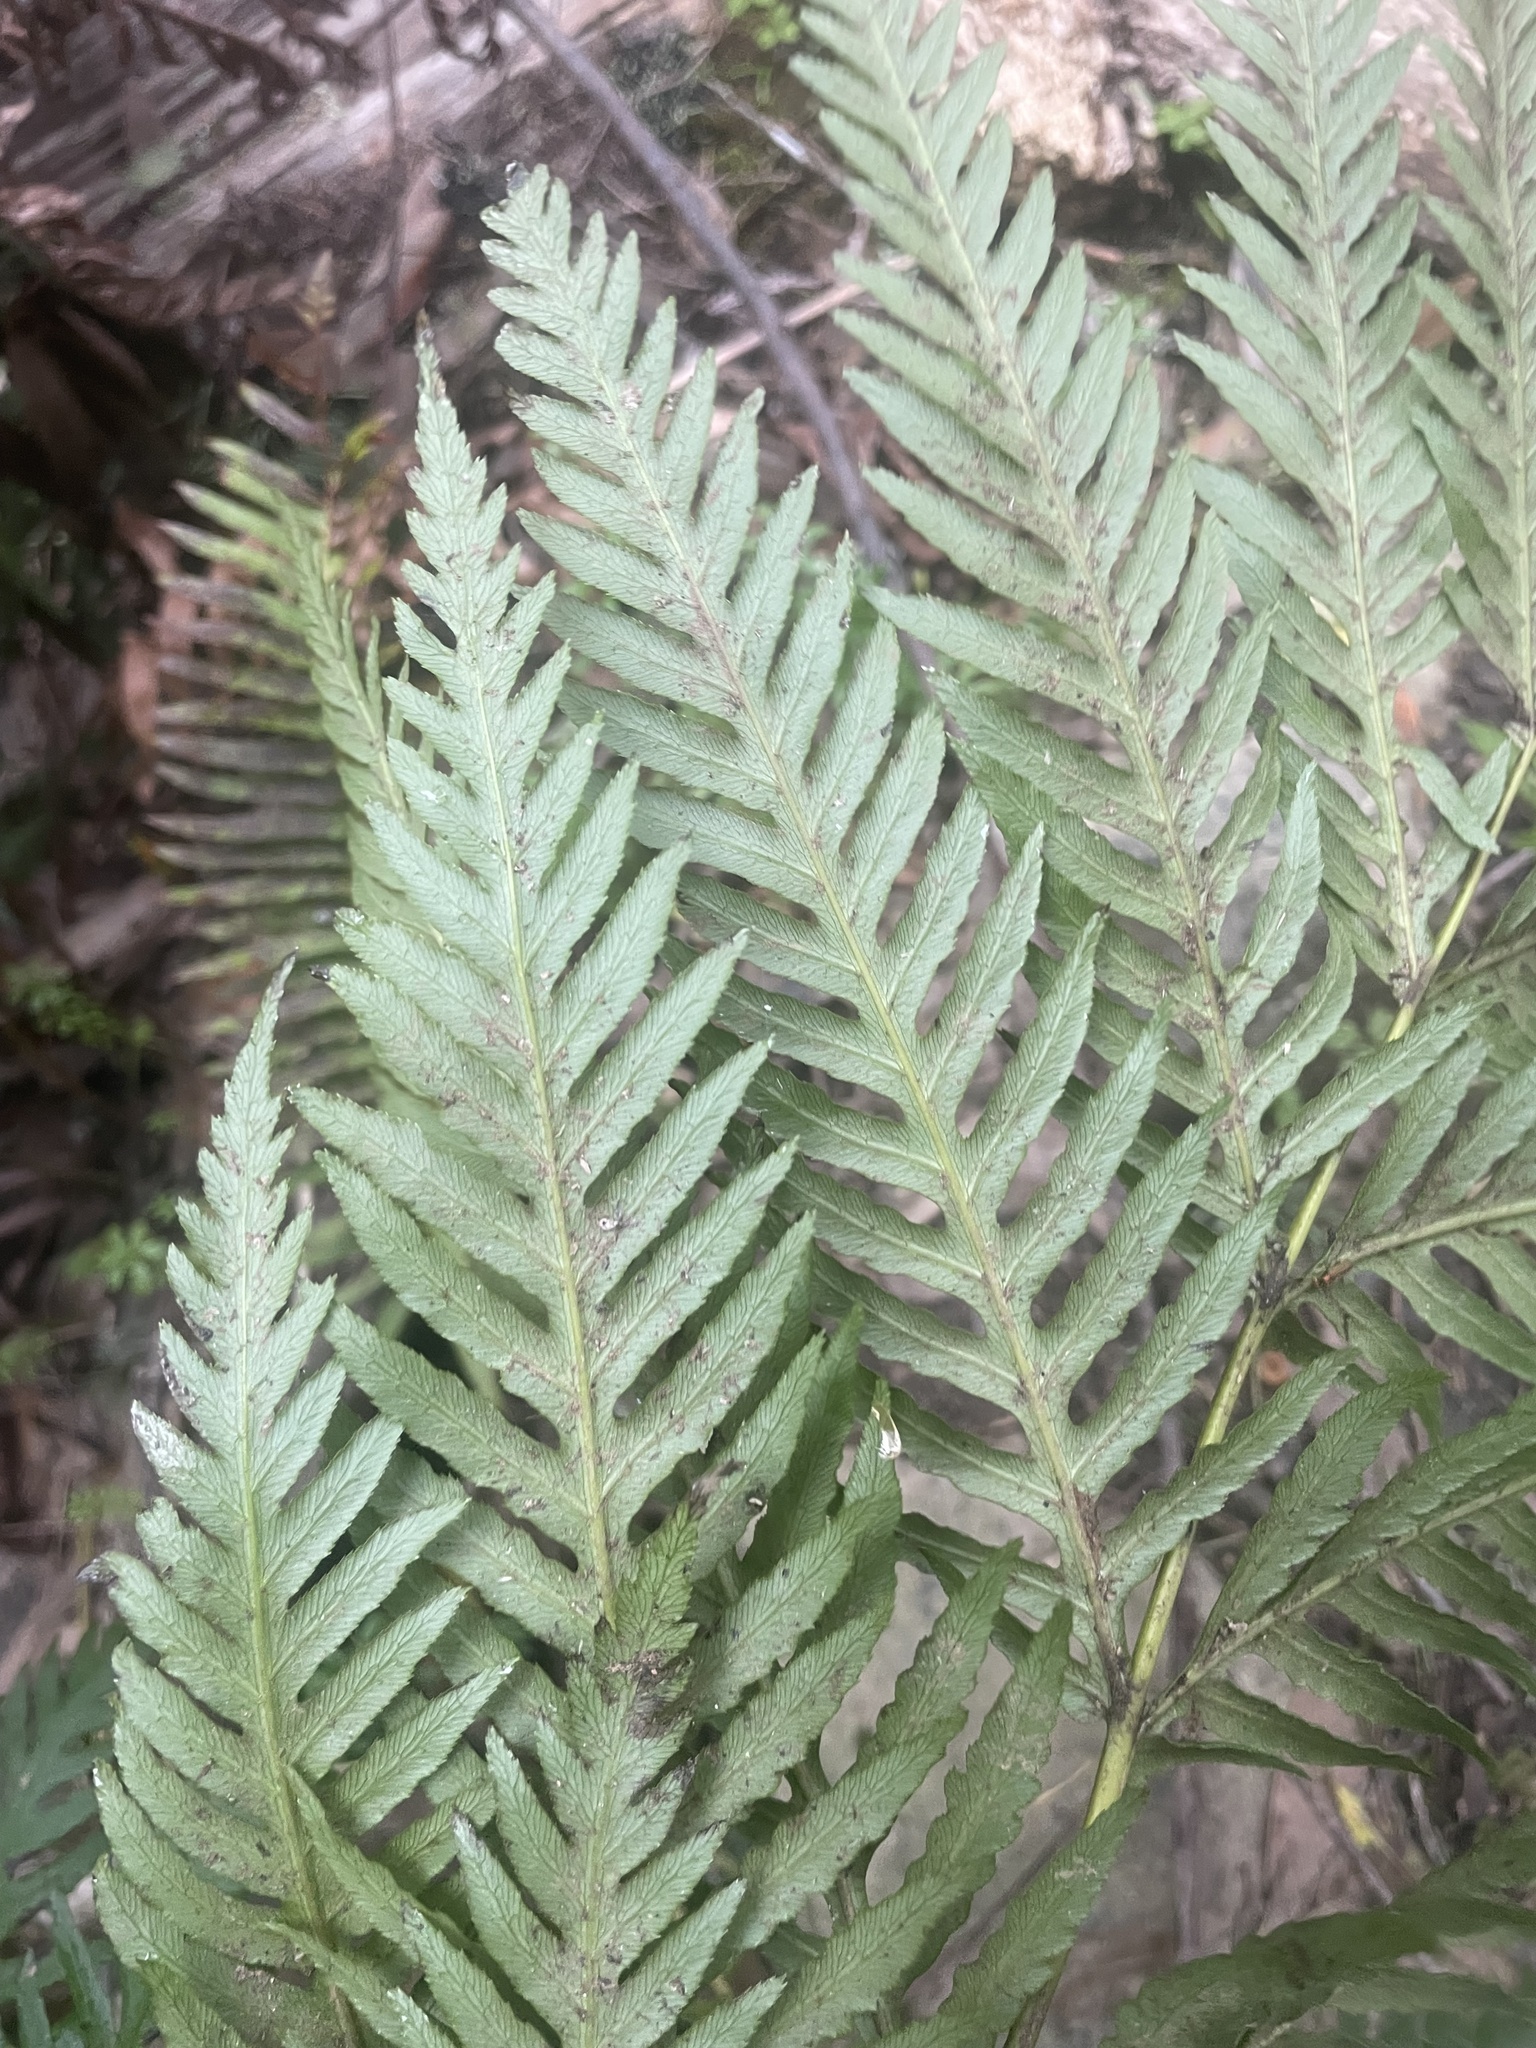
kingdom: Plantae
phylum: Tracheophyta
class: Polypodiopsida
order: Polypodiales
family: Blechnaceae
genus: Woodwardia
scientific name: Woodwardia fimbriata
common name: Giant chain fern
